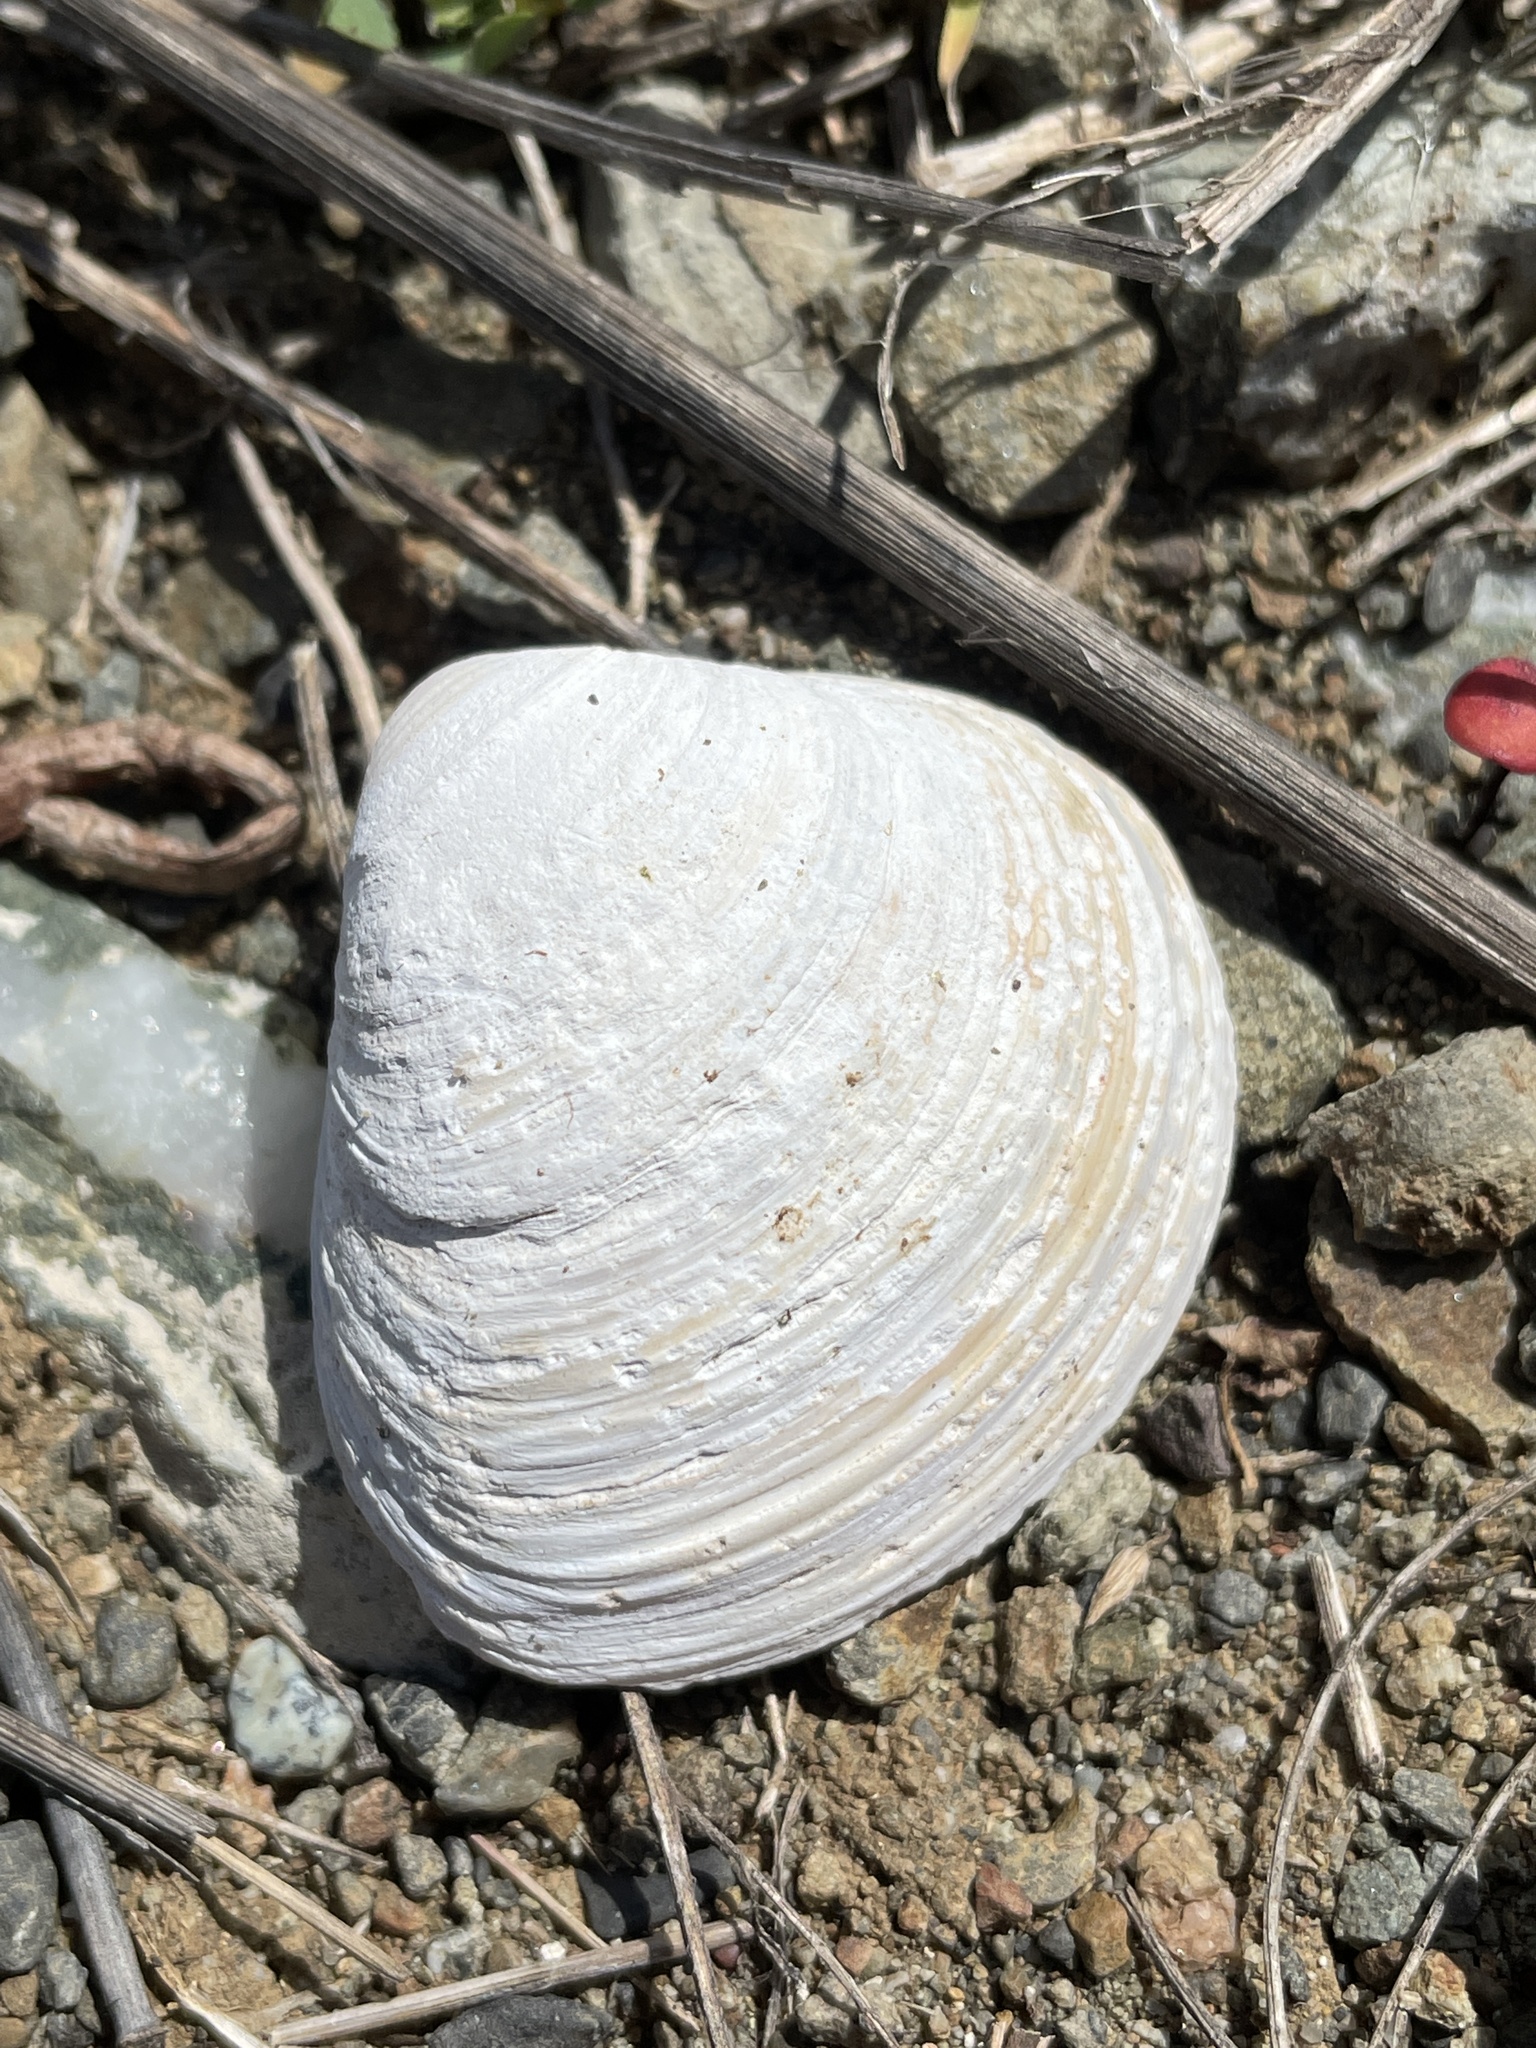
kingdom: Animalia
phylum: Mollusca
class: Bivalvia
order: Venerida
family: Cyrenidae
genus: Corbicula
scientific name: Corbicula fluminea
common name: Asian clam
